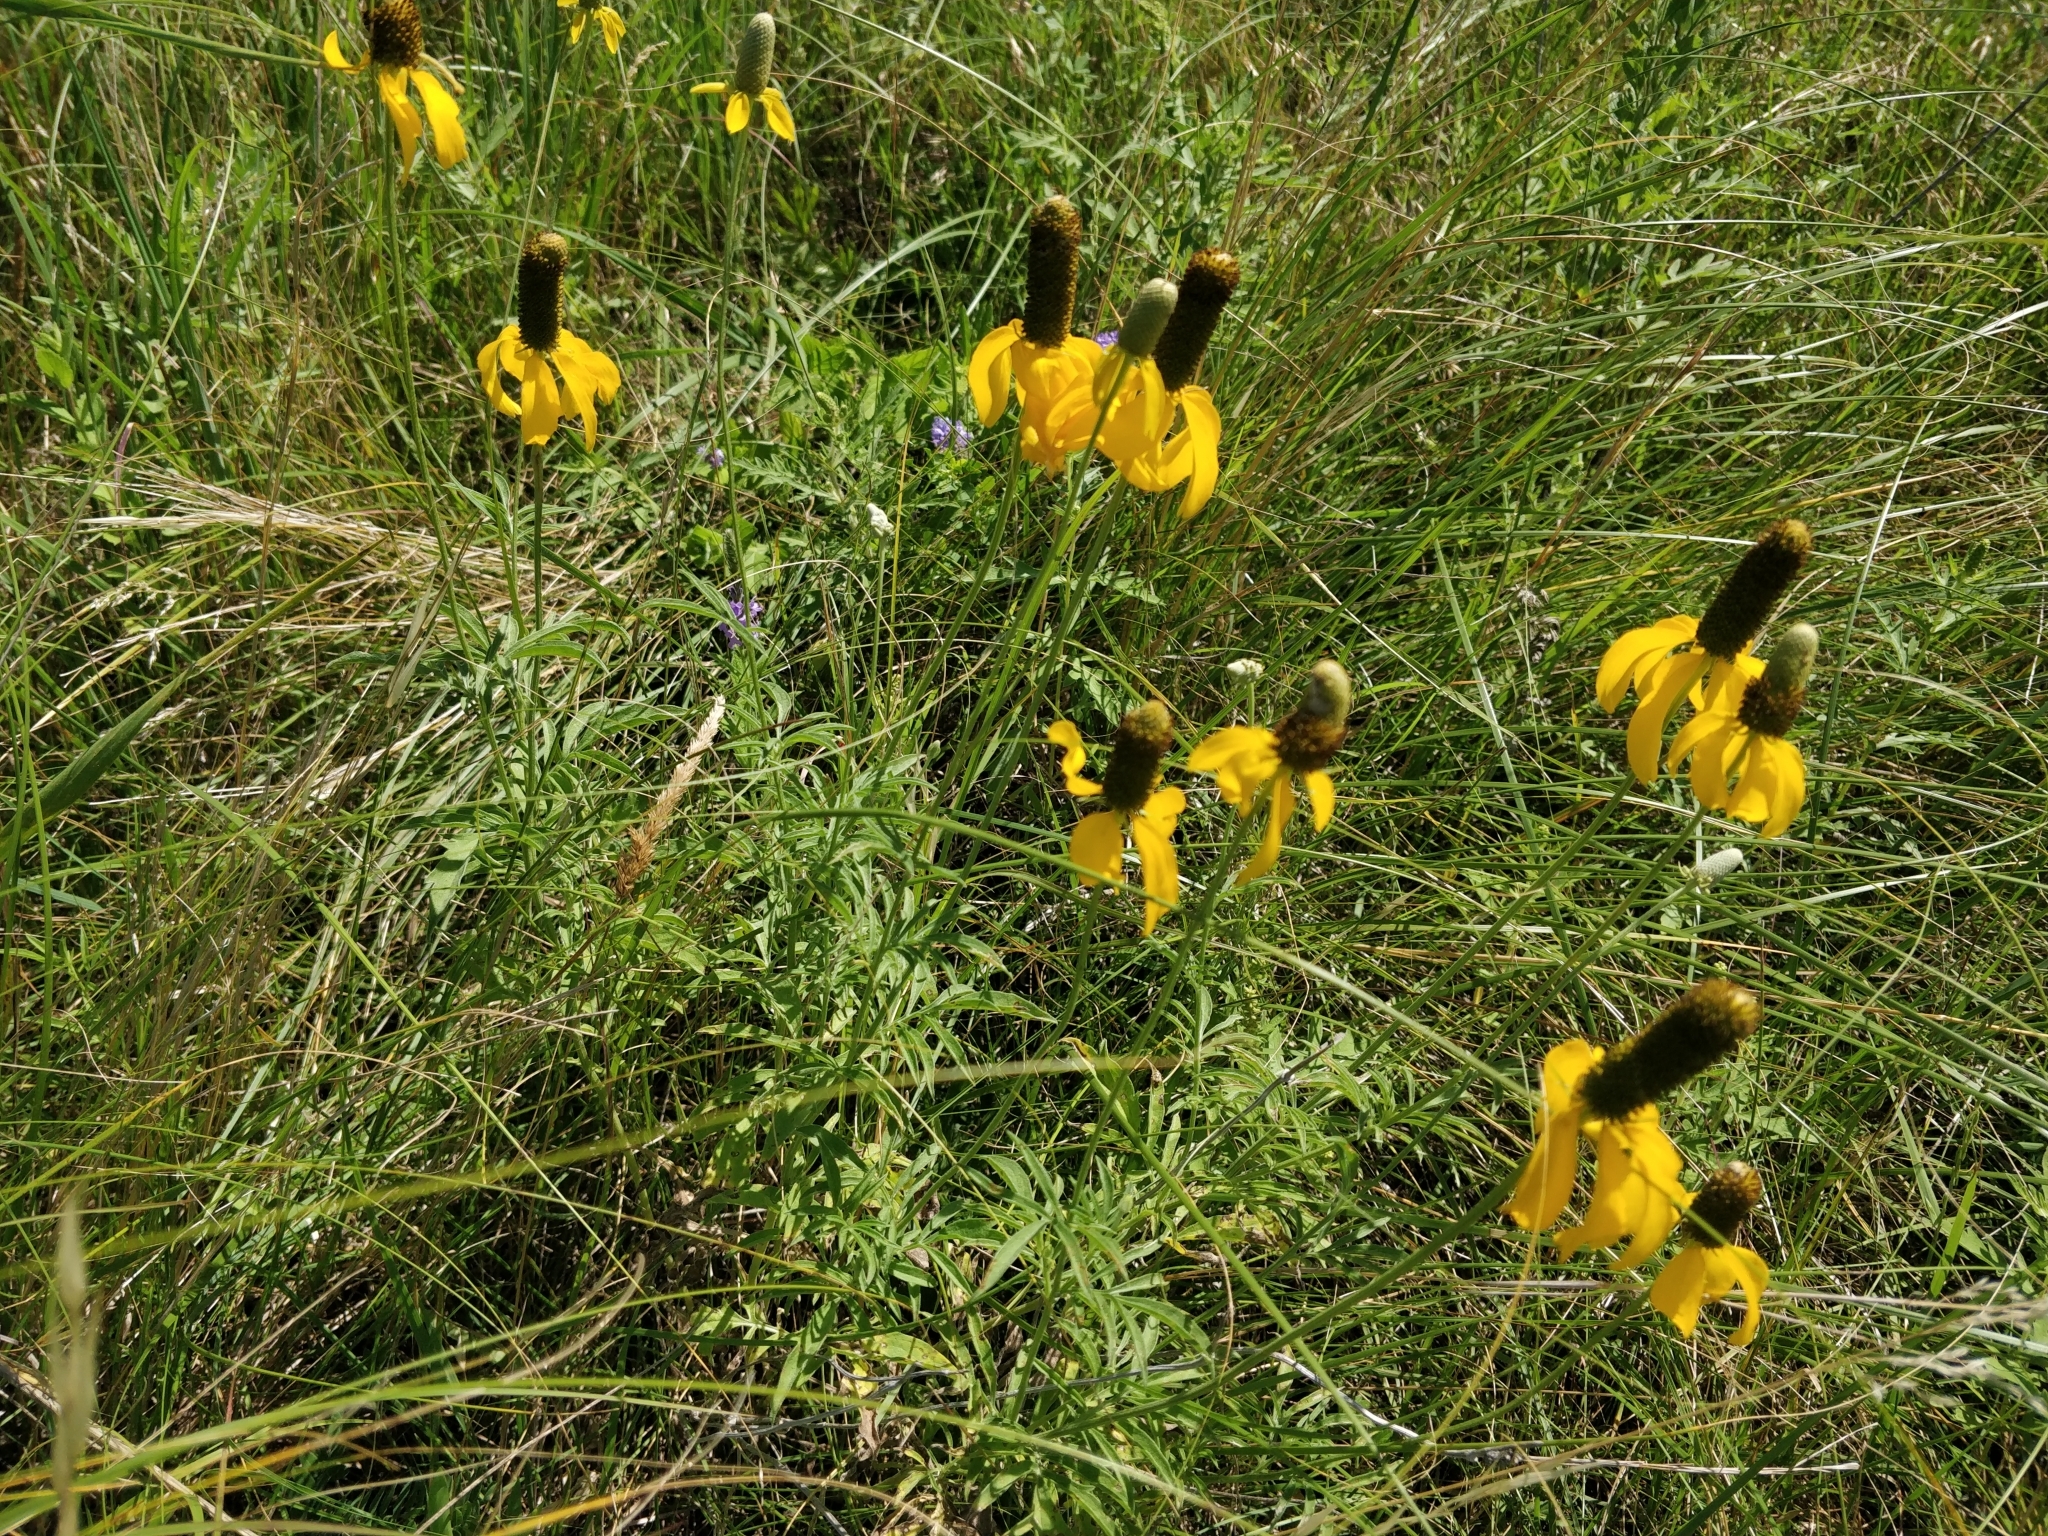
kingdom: Plantae
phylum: Tracheophyta
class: Magnoliopsida
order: Asterales
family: Asteraceae
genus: Ratibida
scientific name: Ratibida columnifera
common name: Prairie coneflower
